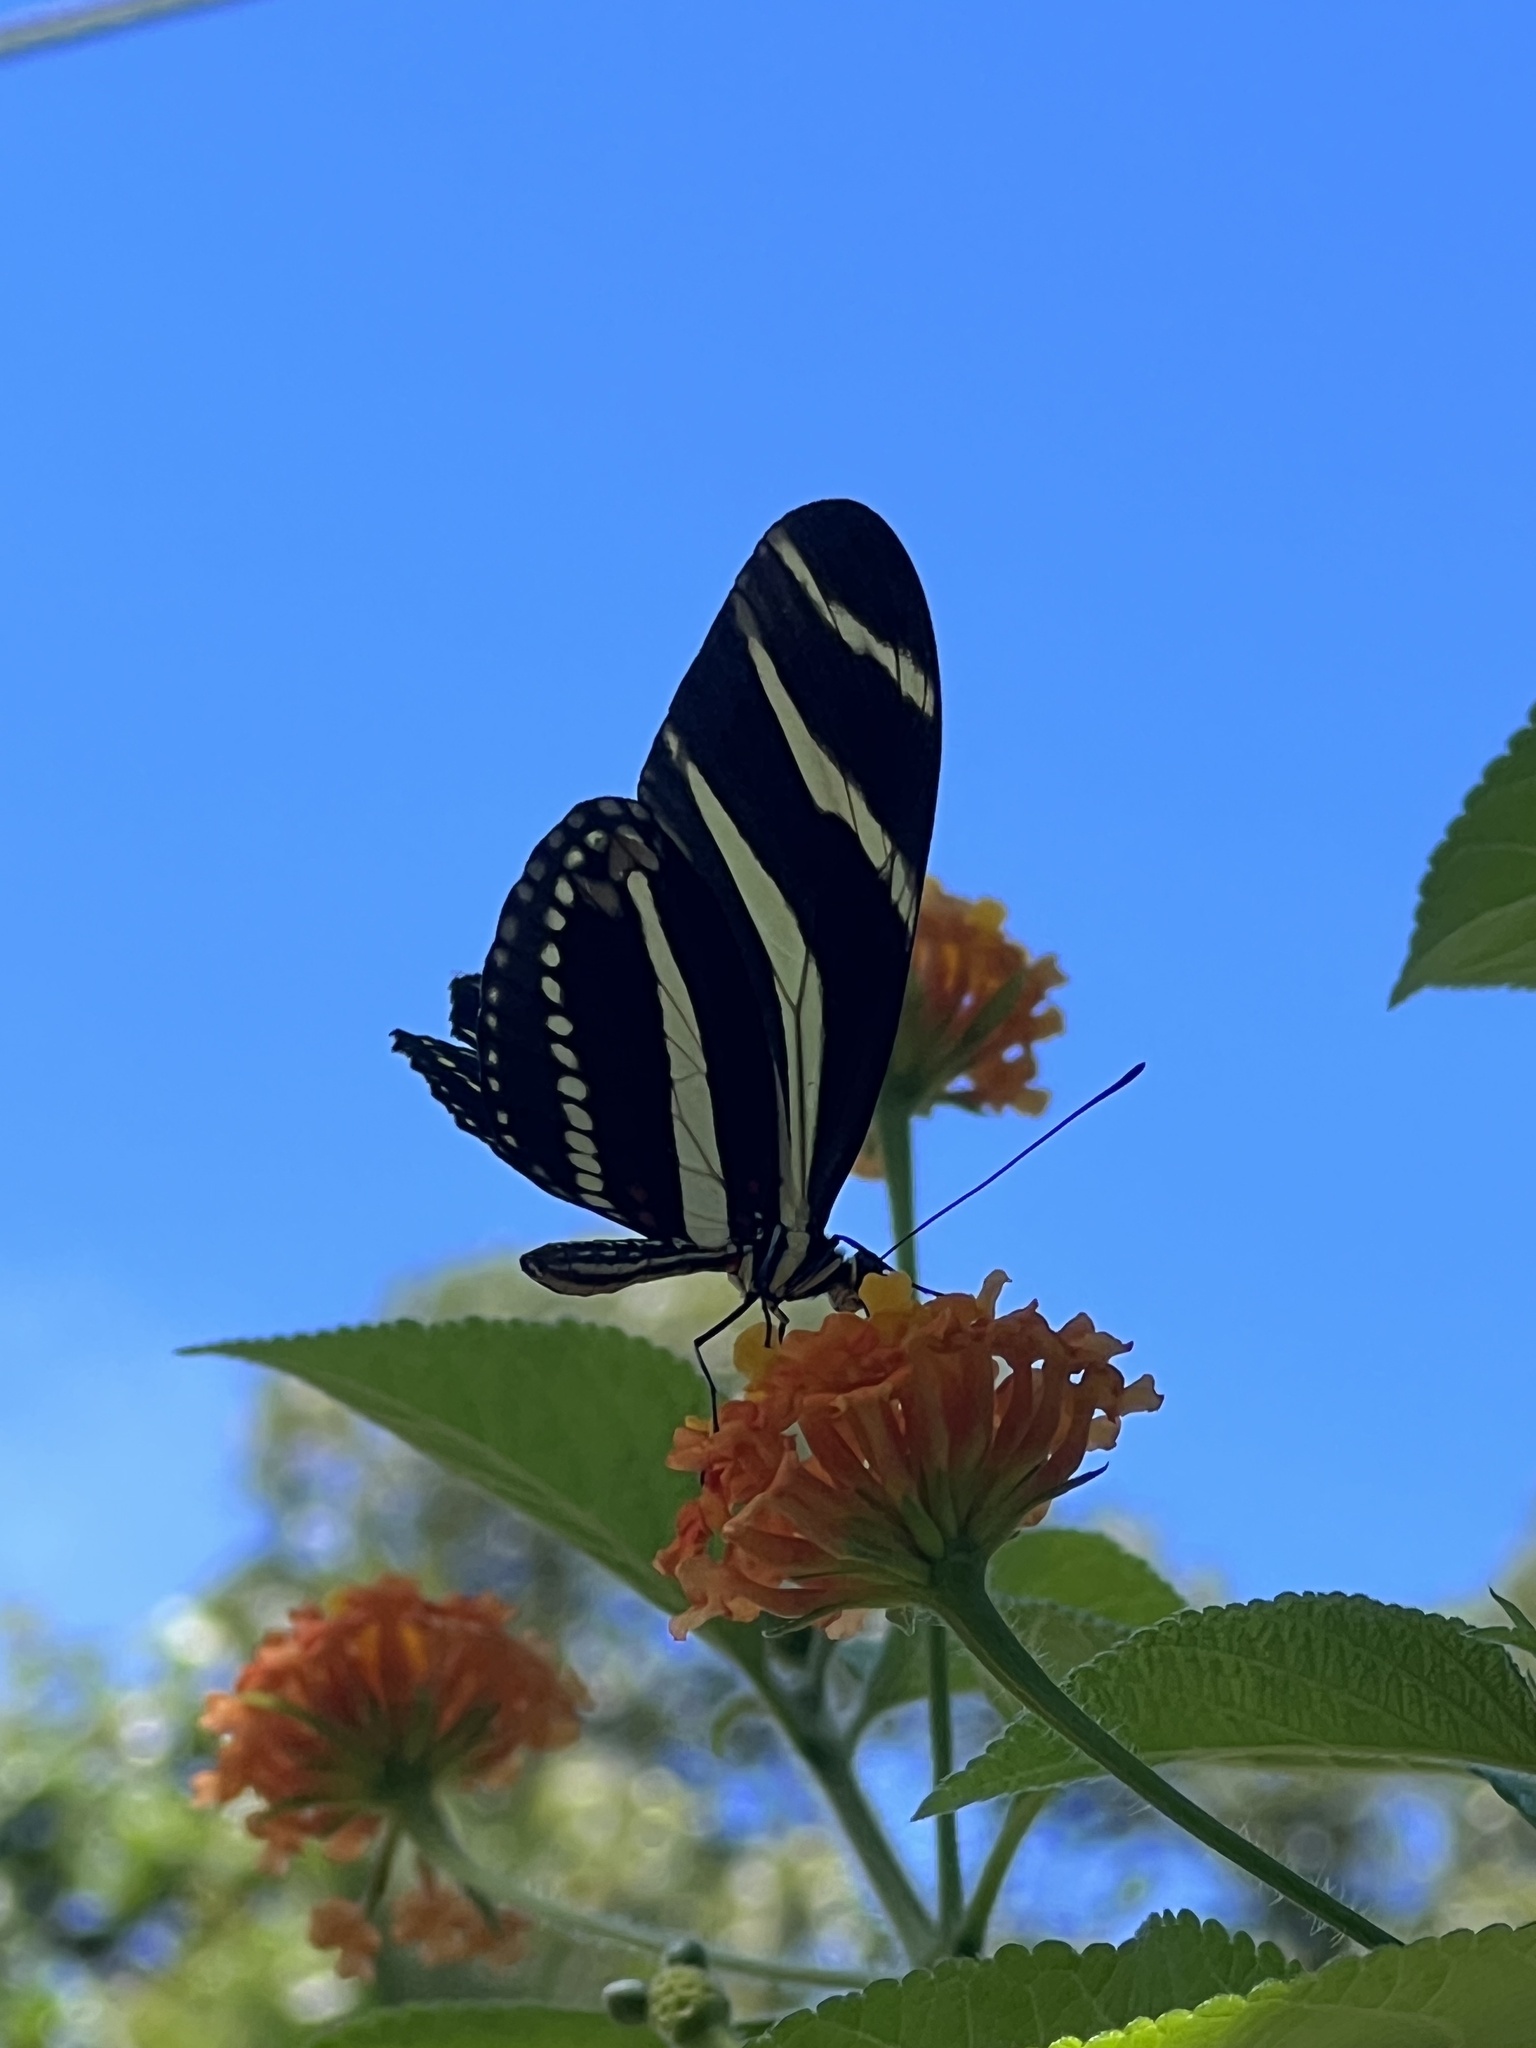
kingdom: Animalia
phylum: Arthropoda
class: Insecta
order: Lepidoptera
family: Nymphalidae
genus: Heliconius
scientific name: Heliconius charithonia
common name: Zebra long wing
